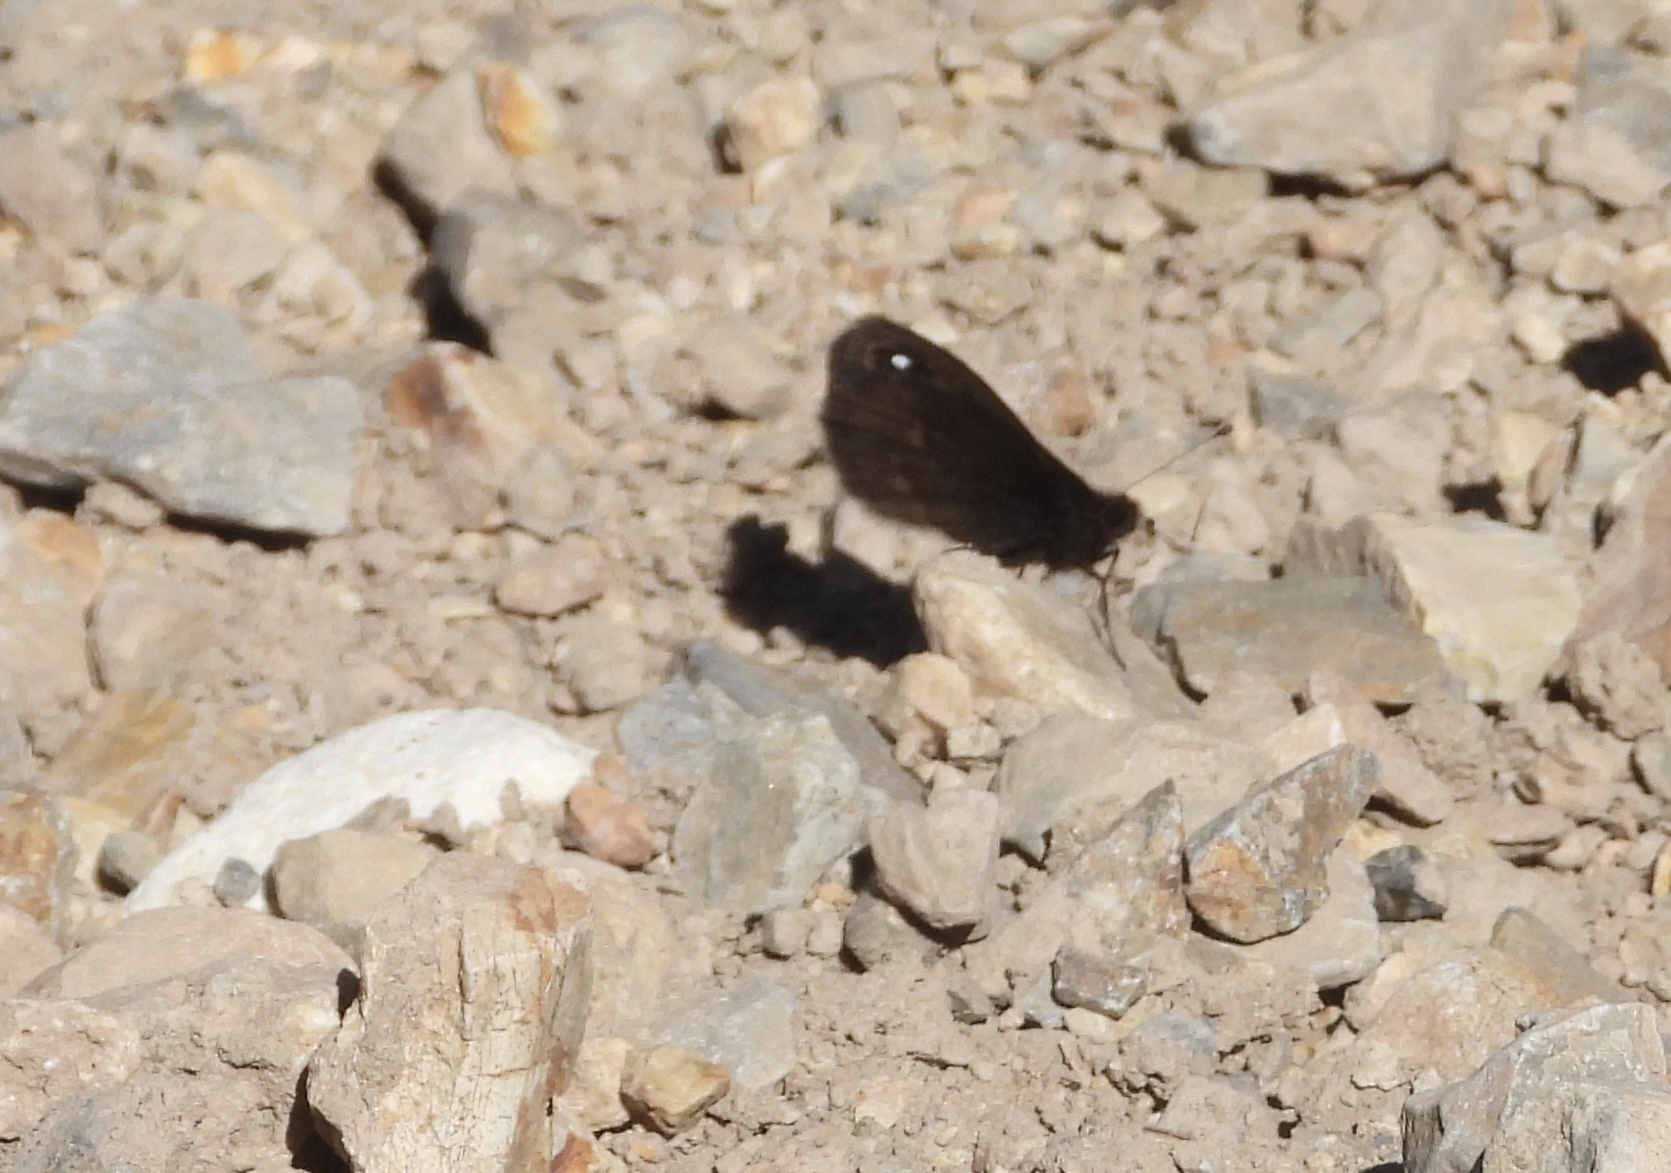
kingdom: Animalia
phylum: Arthropoda
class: Insecta
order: Lepidoptera
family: Nymphalidae
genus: Faunula
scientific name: Faunula leucoglene
